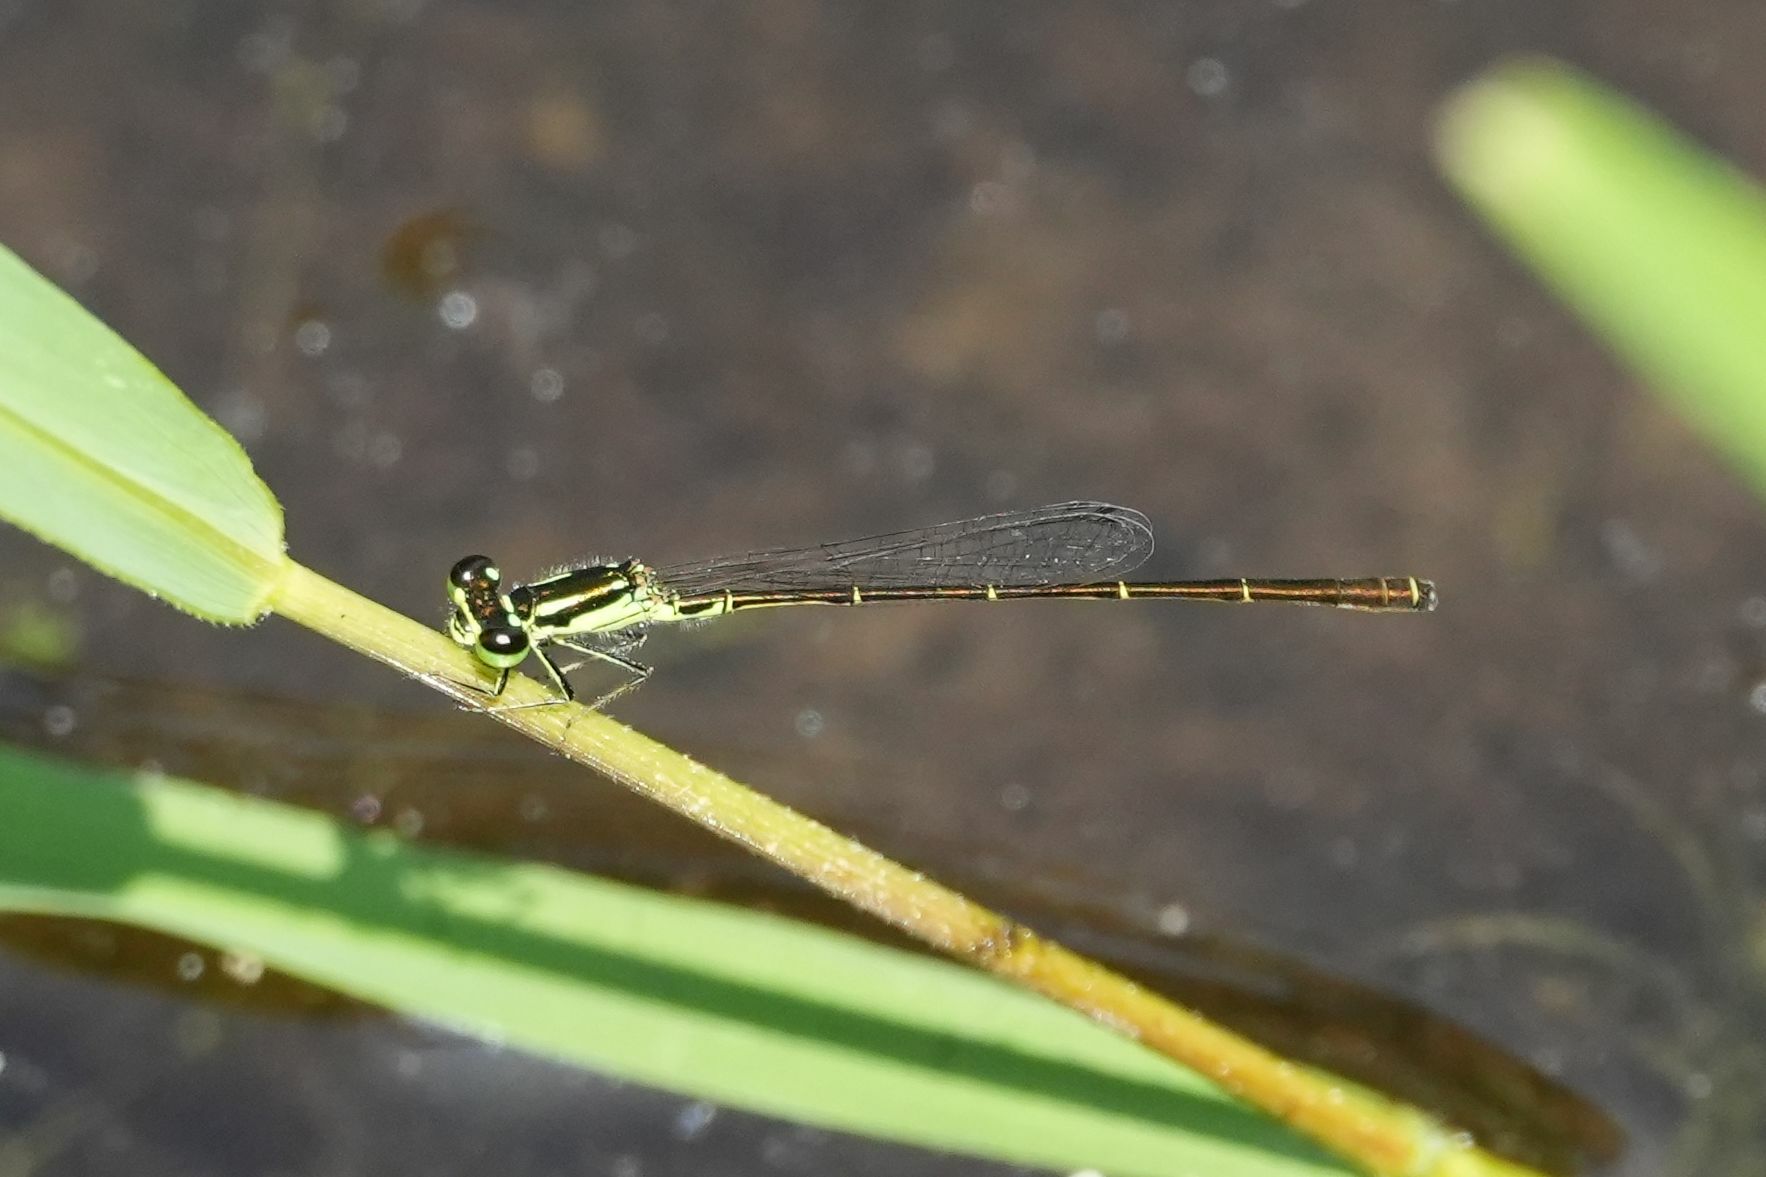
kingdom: Animalia
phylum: Arthropoda
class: Insecta
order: Odonata
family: Coenagrionidae
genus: Ischnura
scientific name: Ischnura posita
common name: Fragile forktail
